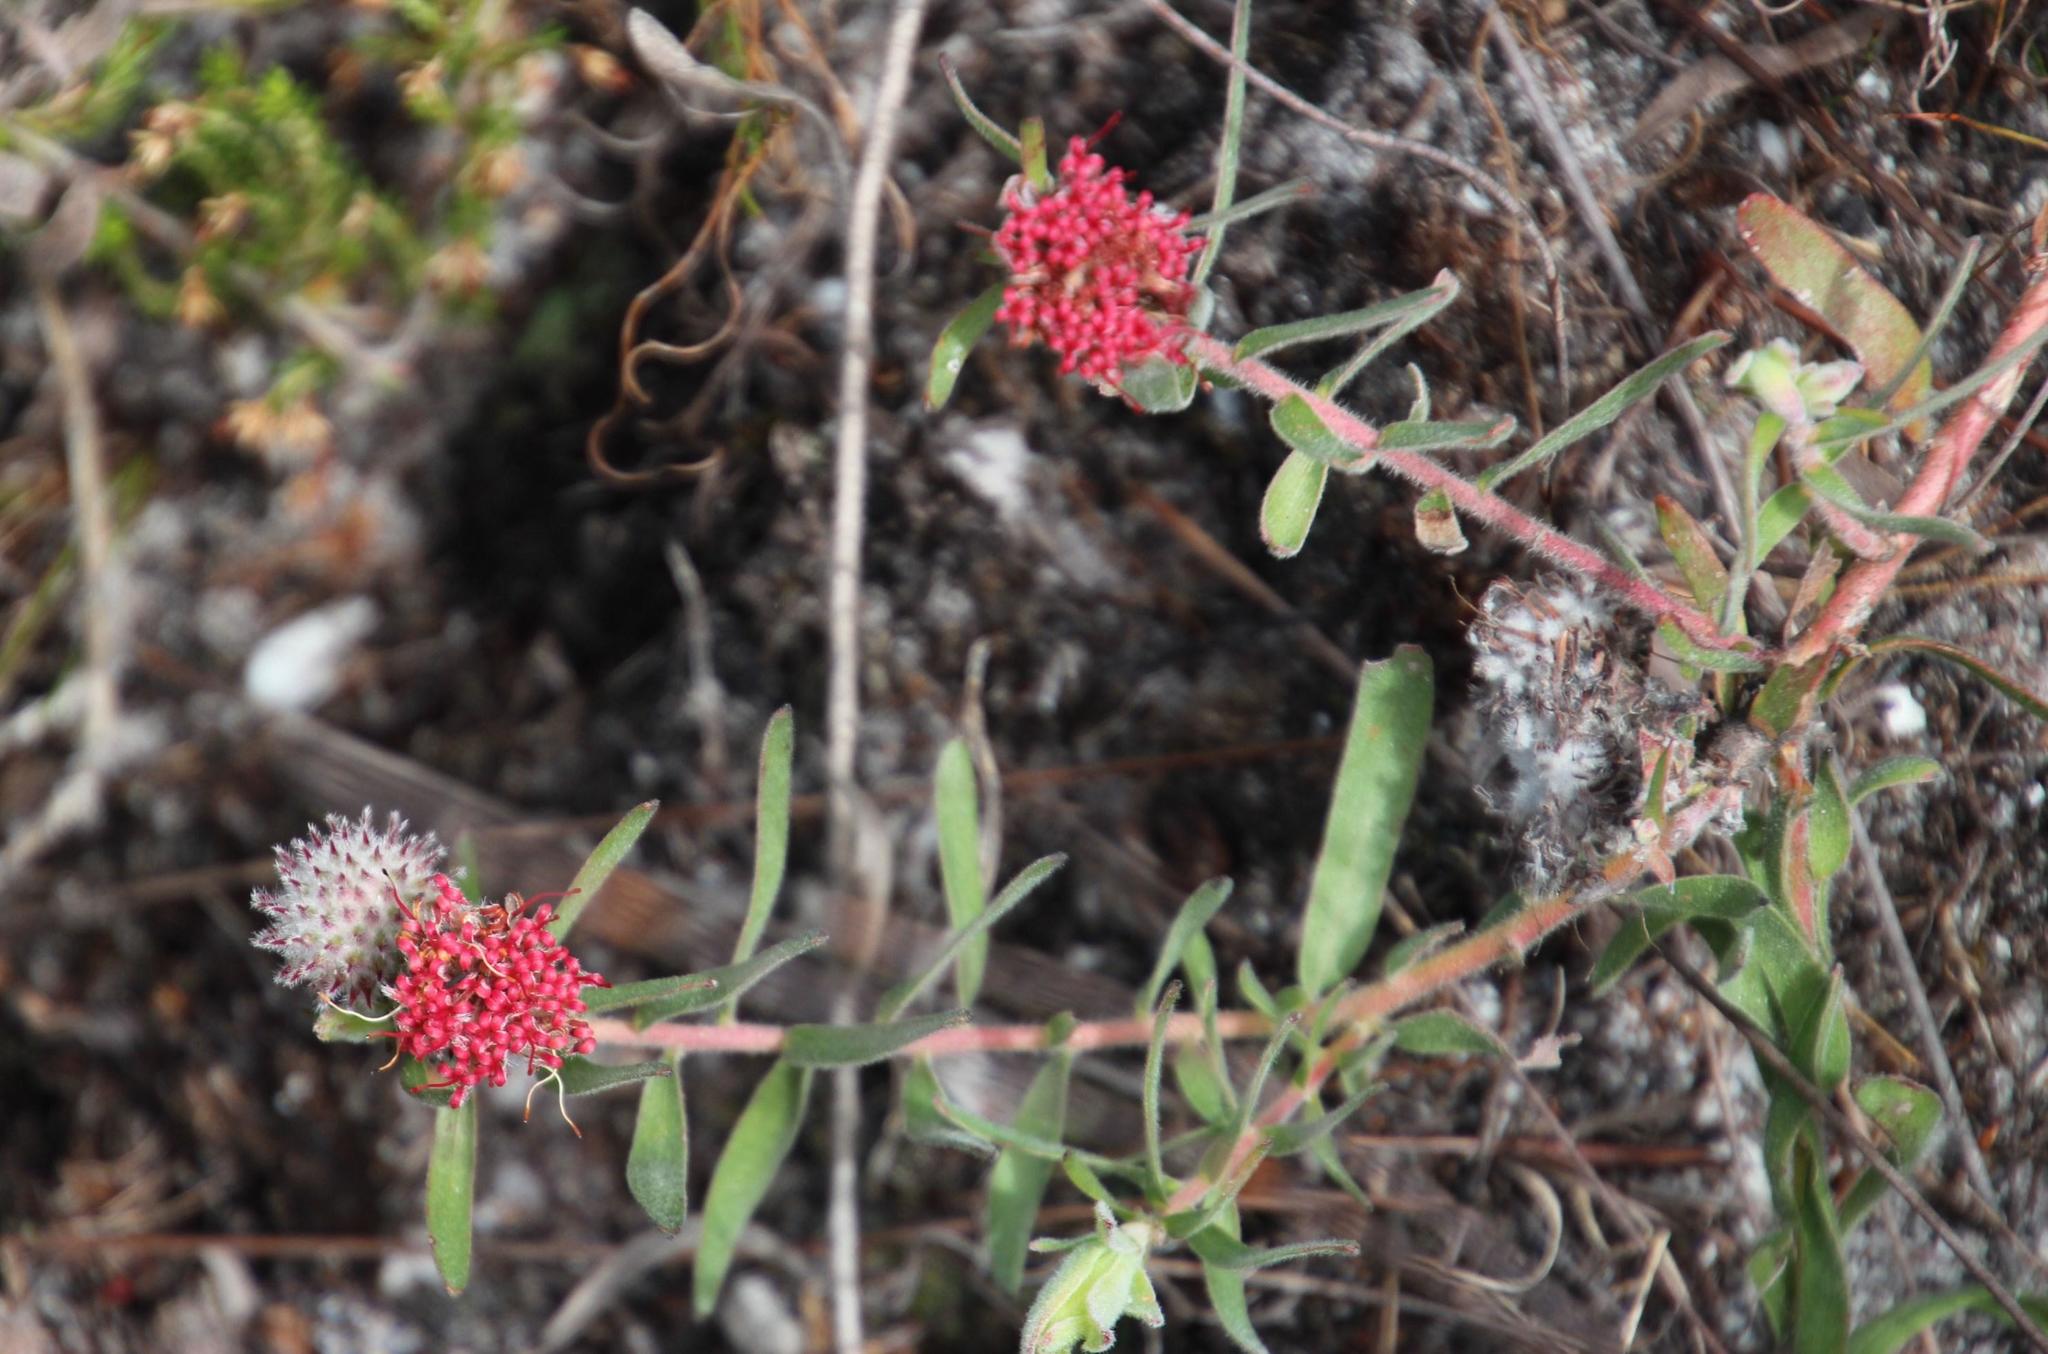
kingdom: Plantae
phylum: Tracheophyta
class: Magnoliopsida
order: Proteales
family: Proteaceae
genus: Leucospermum
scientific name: Leucospermum pedunculatum
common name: White-trailing pincushion
